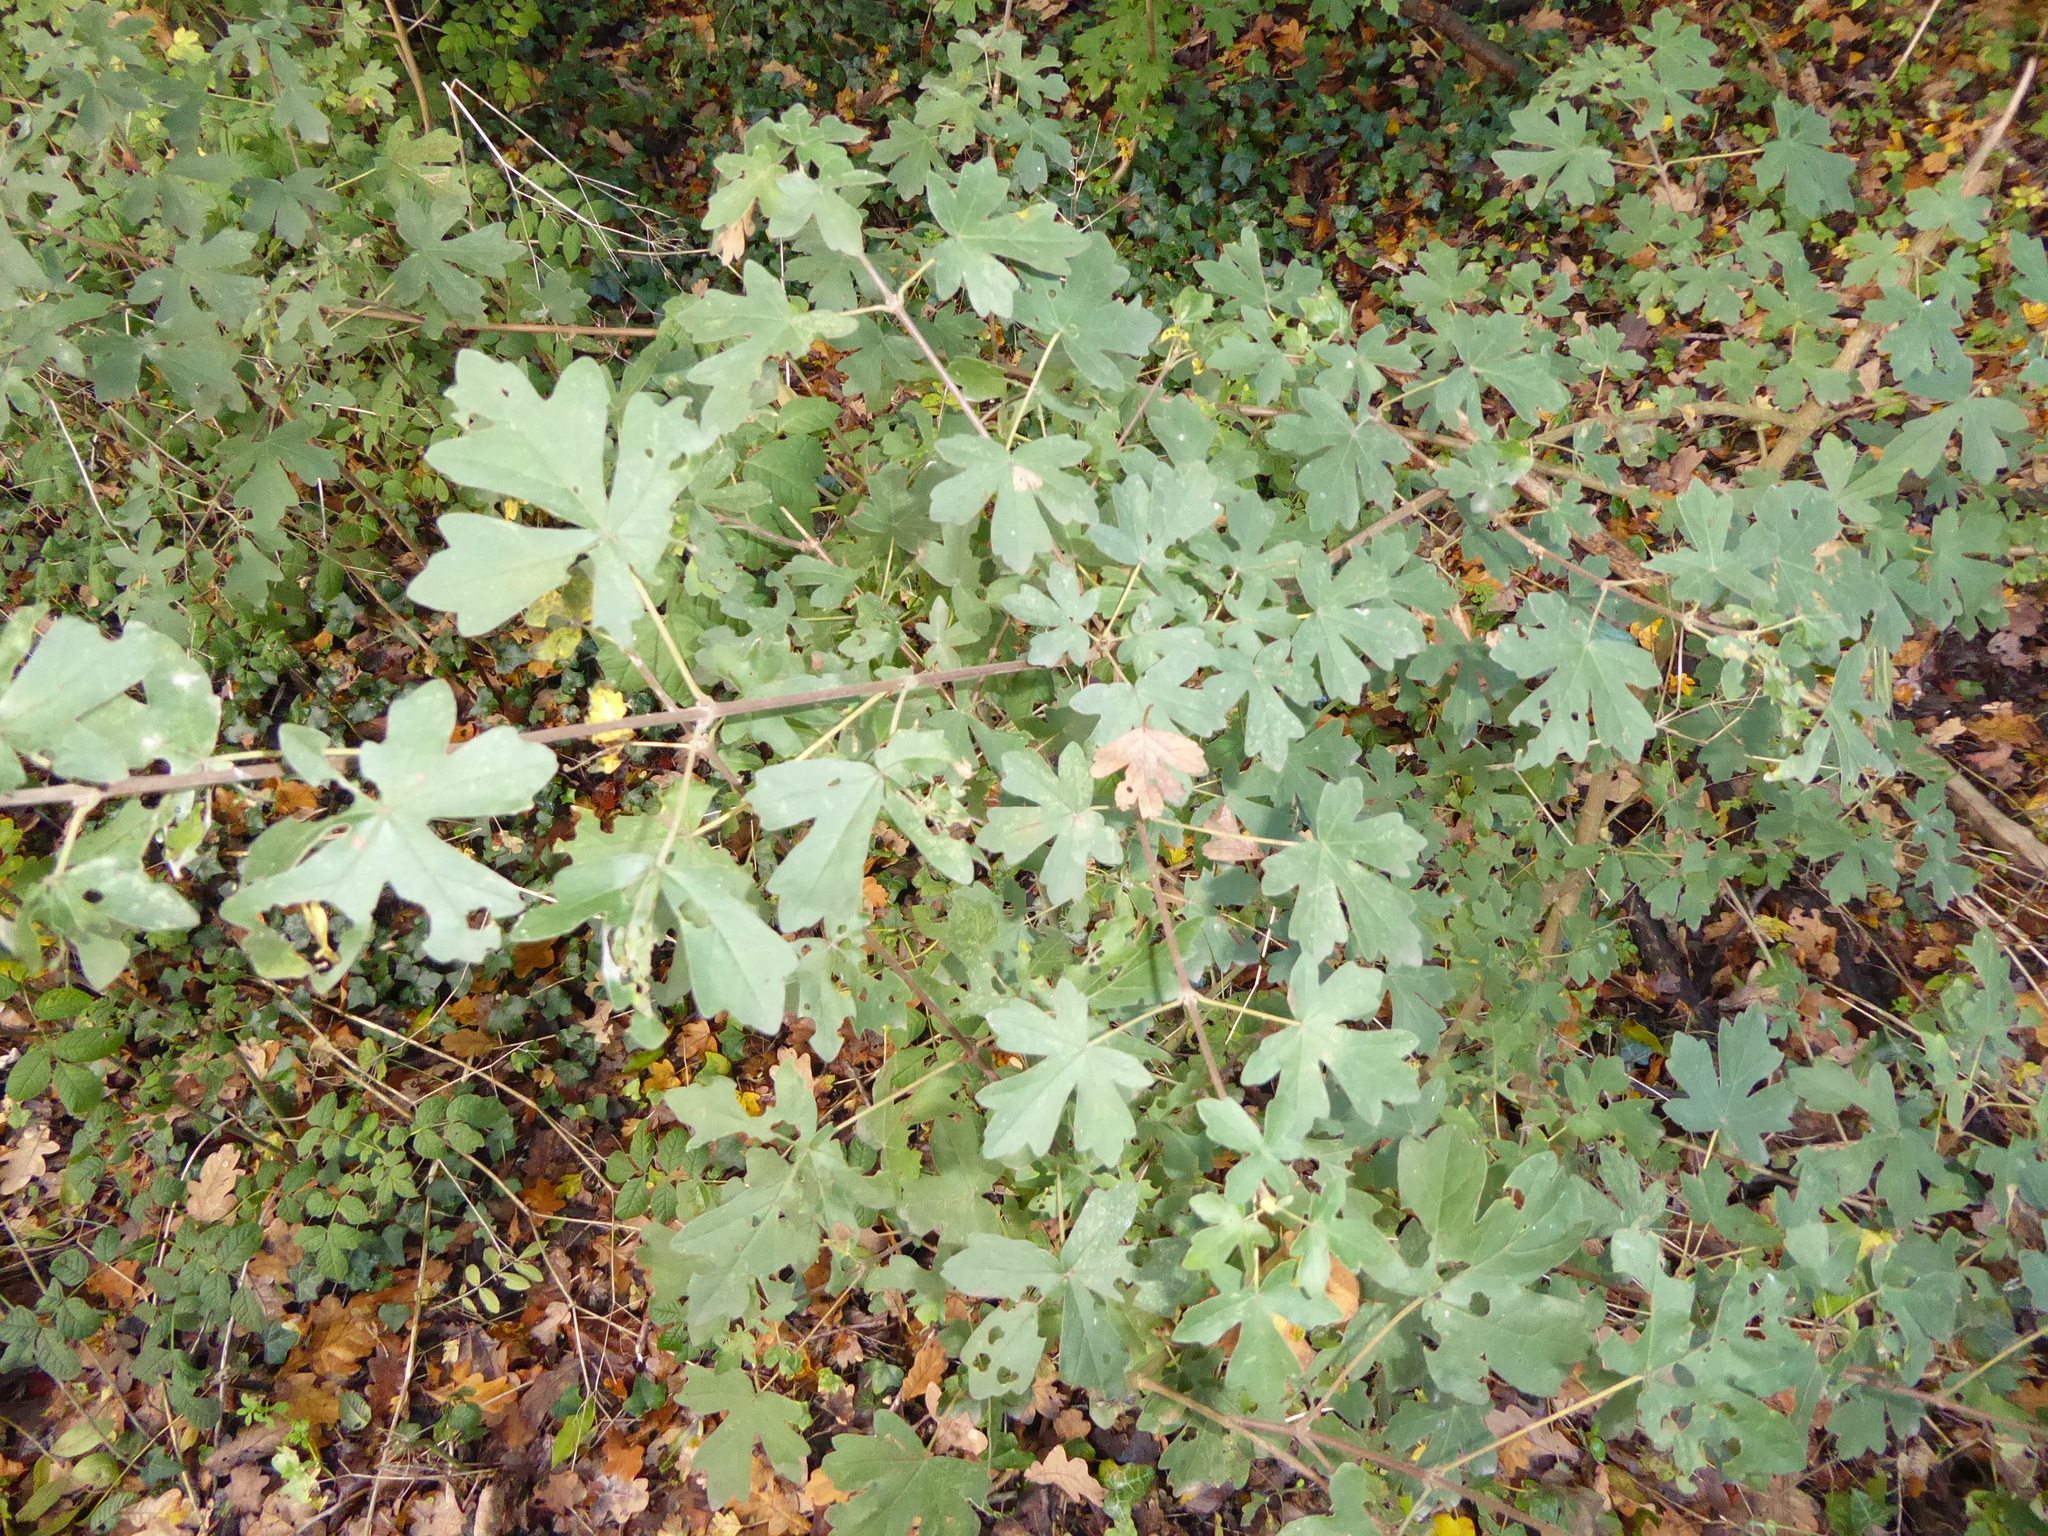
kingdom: Plantae
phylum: Tracheophyta
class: Magnoliopsida
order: Sapindales
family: Sapindaceae
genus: Acer
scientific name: Acer campestre
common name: Field maple
